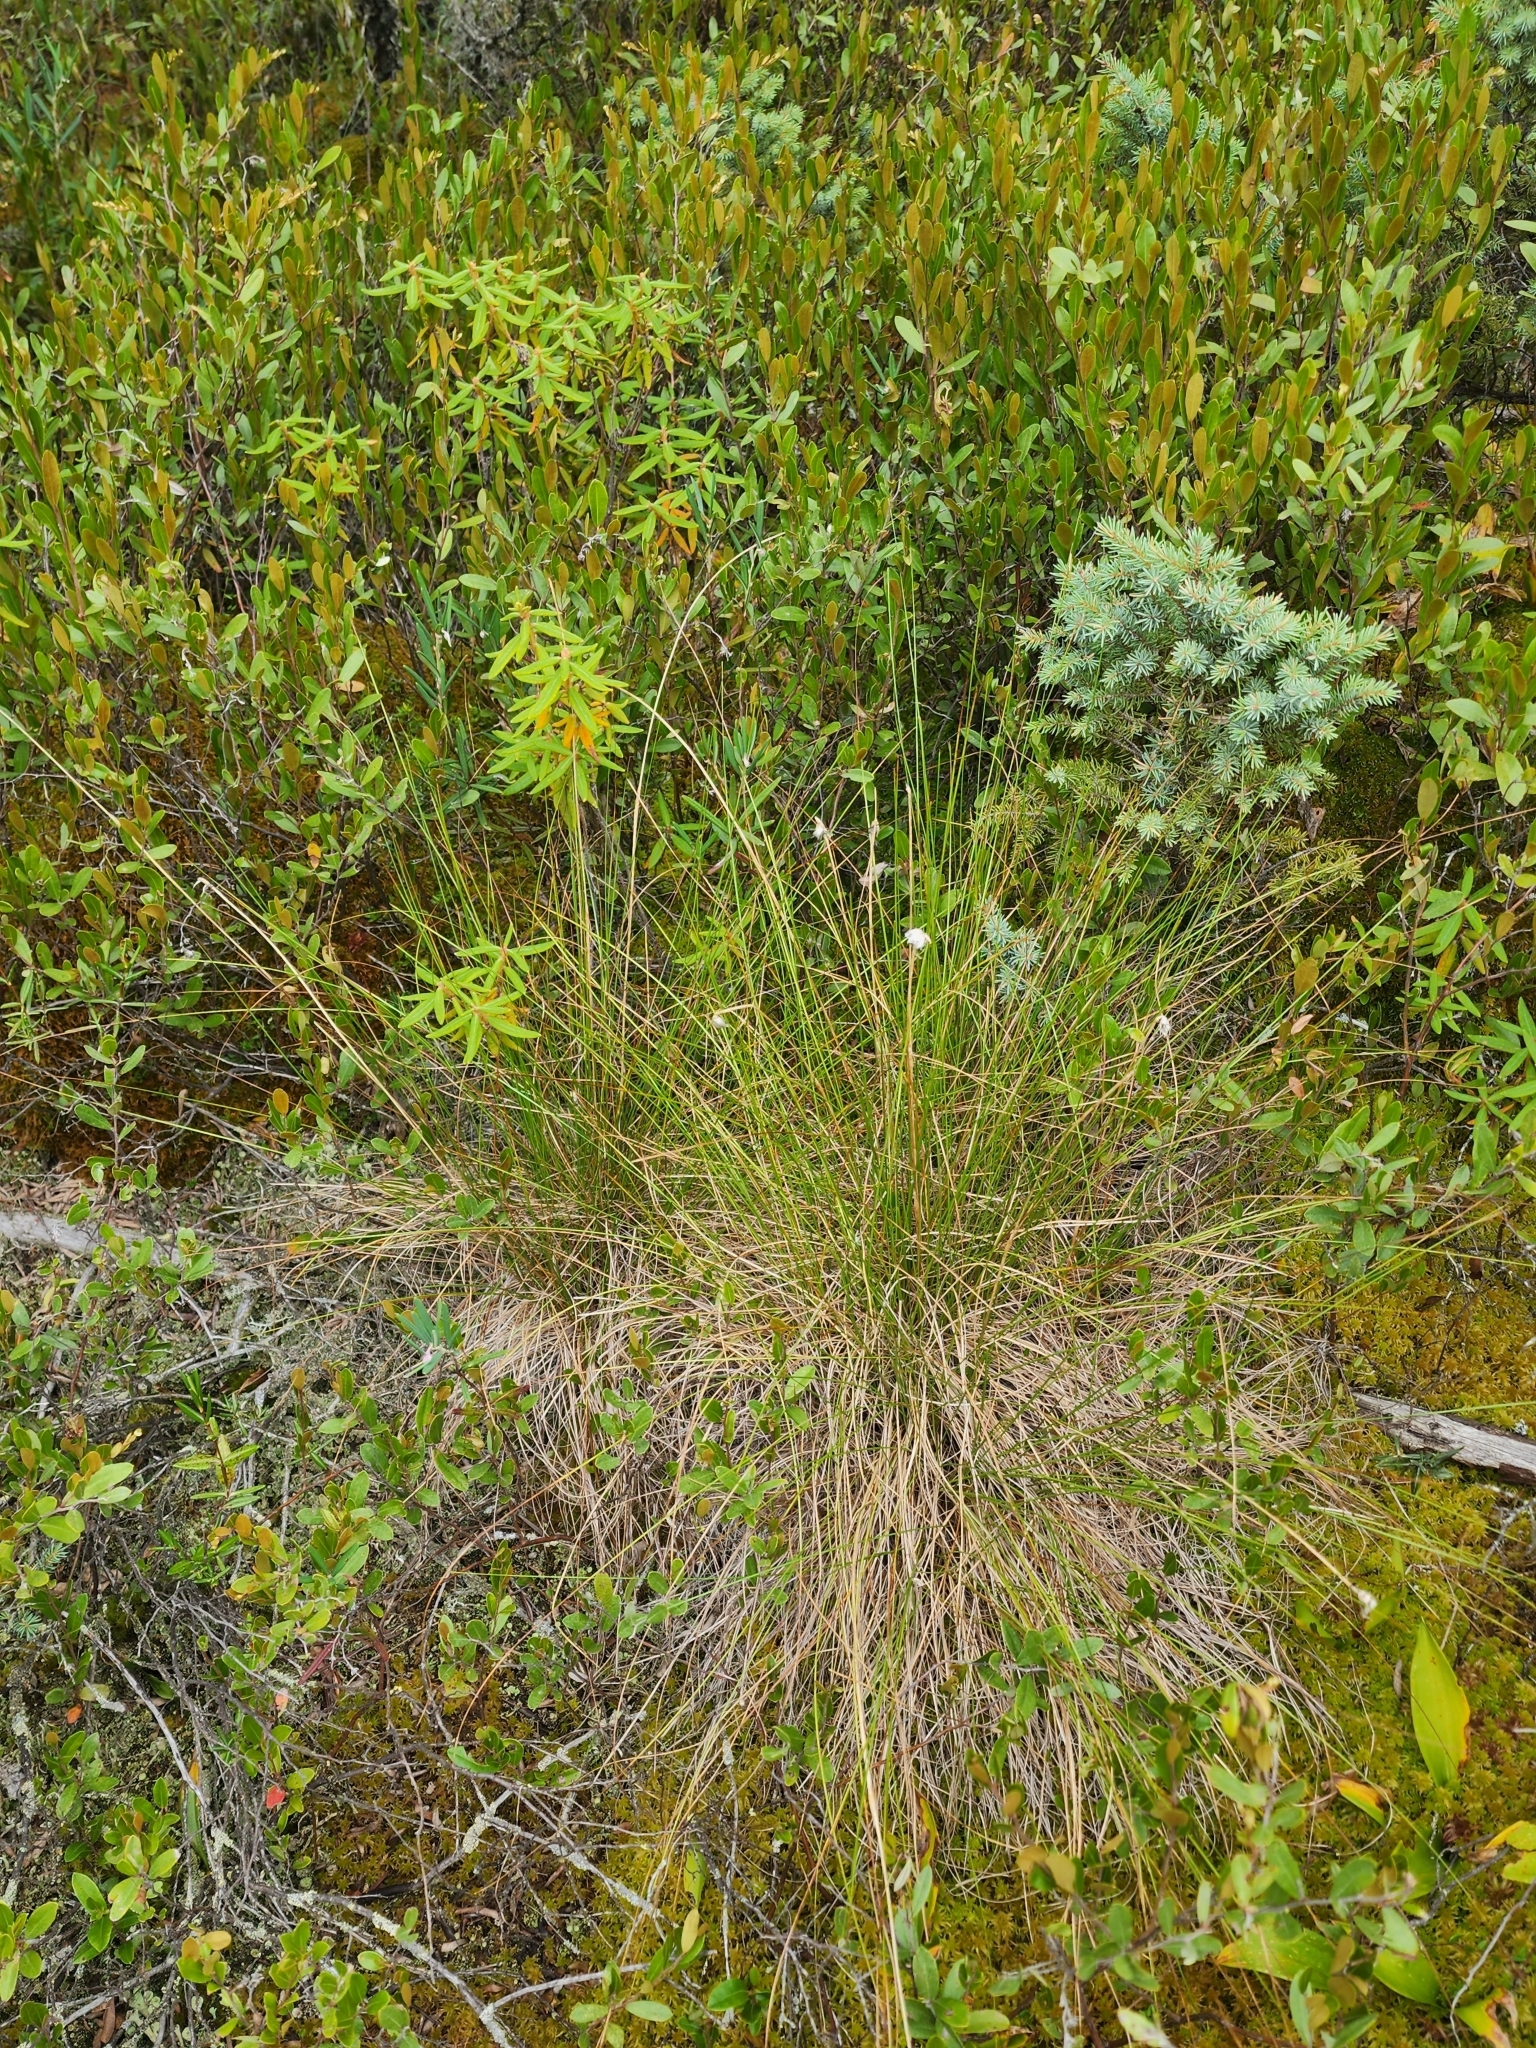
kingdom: Plantae
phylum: Tracheophyta
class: Liliopsida
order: Poales
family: Cyperaceae
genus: Eriophorum
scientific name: Eriophorum vaginatum
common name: Hare's-tail cottongrass
